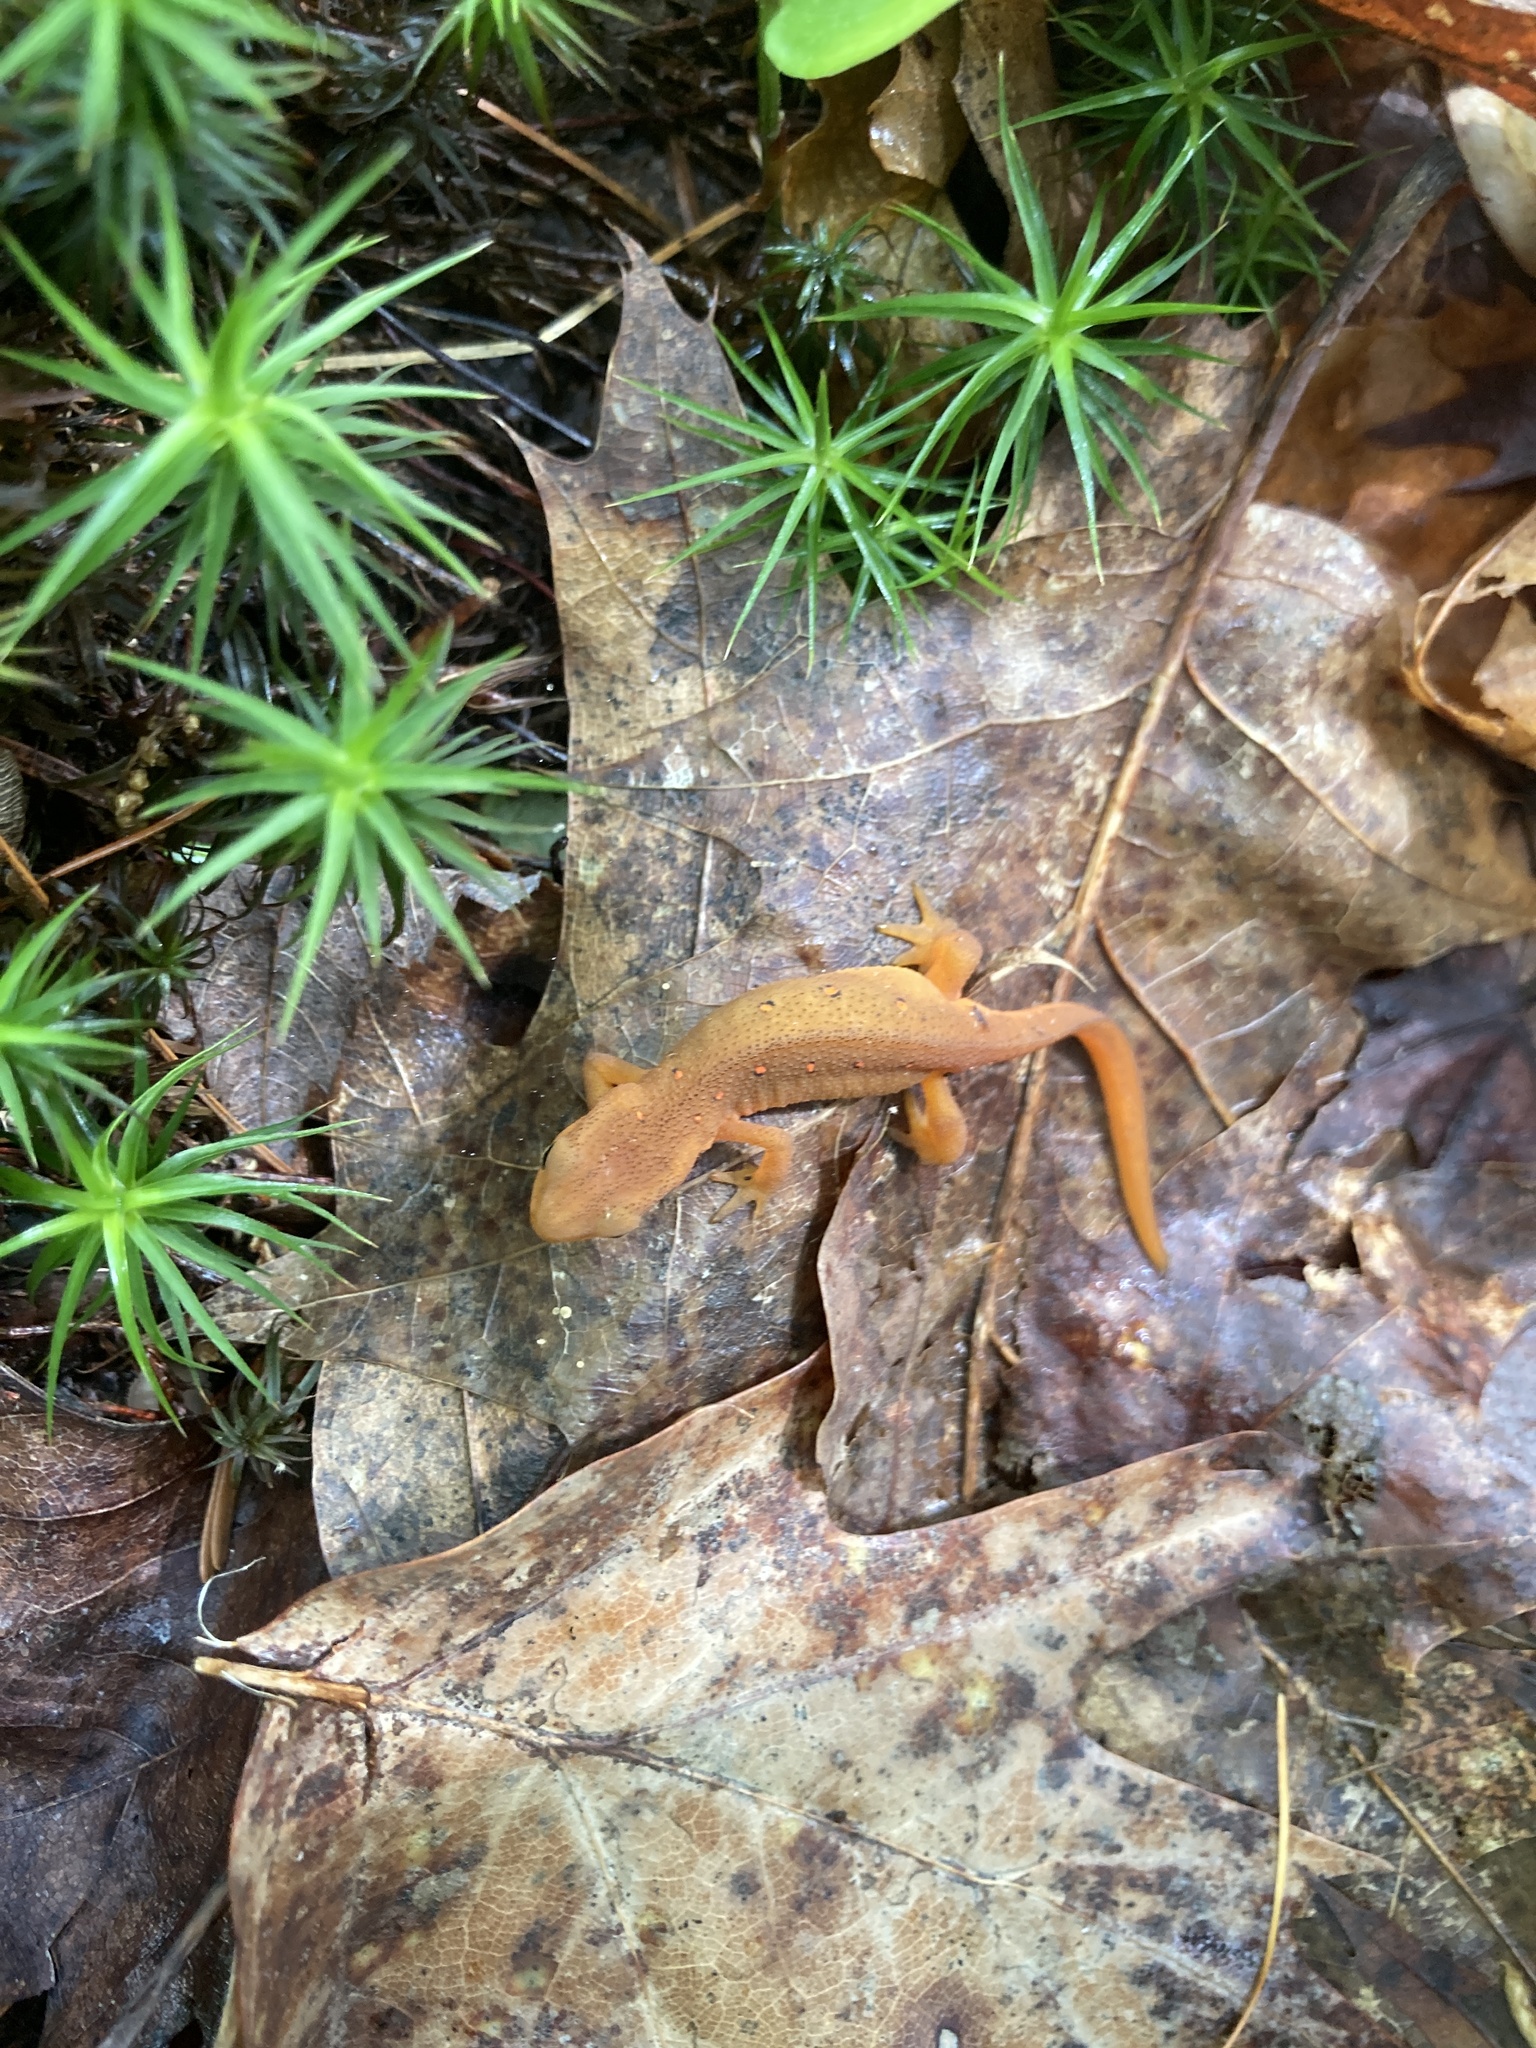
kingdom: Animalia
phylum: Chordata
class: Amphibia
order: Caudata
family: Salamandridae
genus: Notophthalmus
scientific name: Notophthalmus viridescens
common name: Eastern newt
